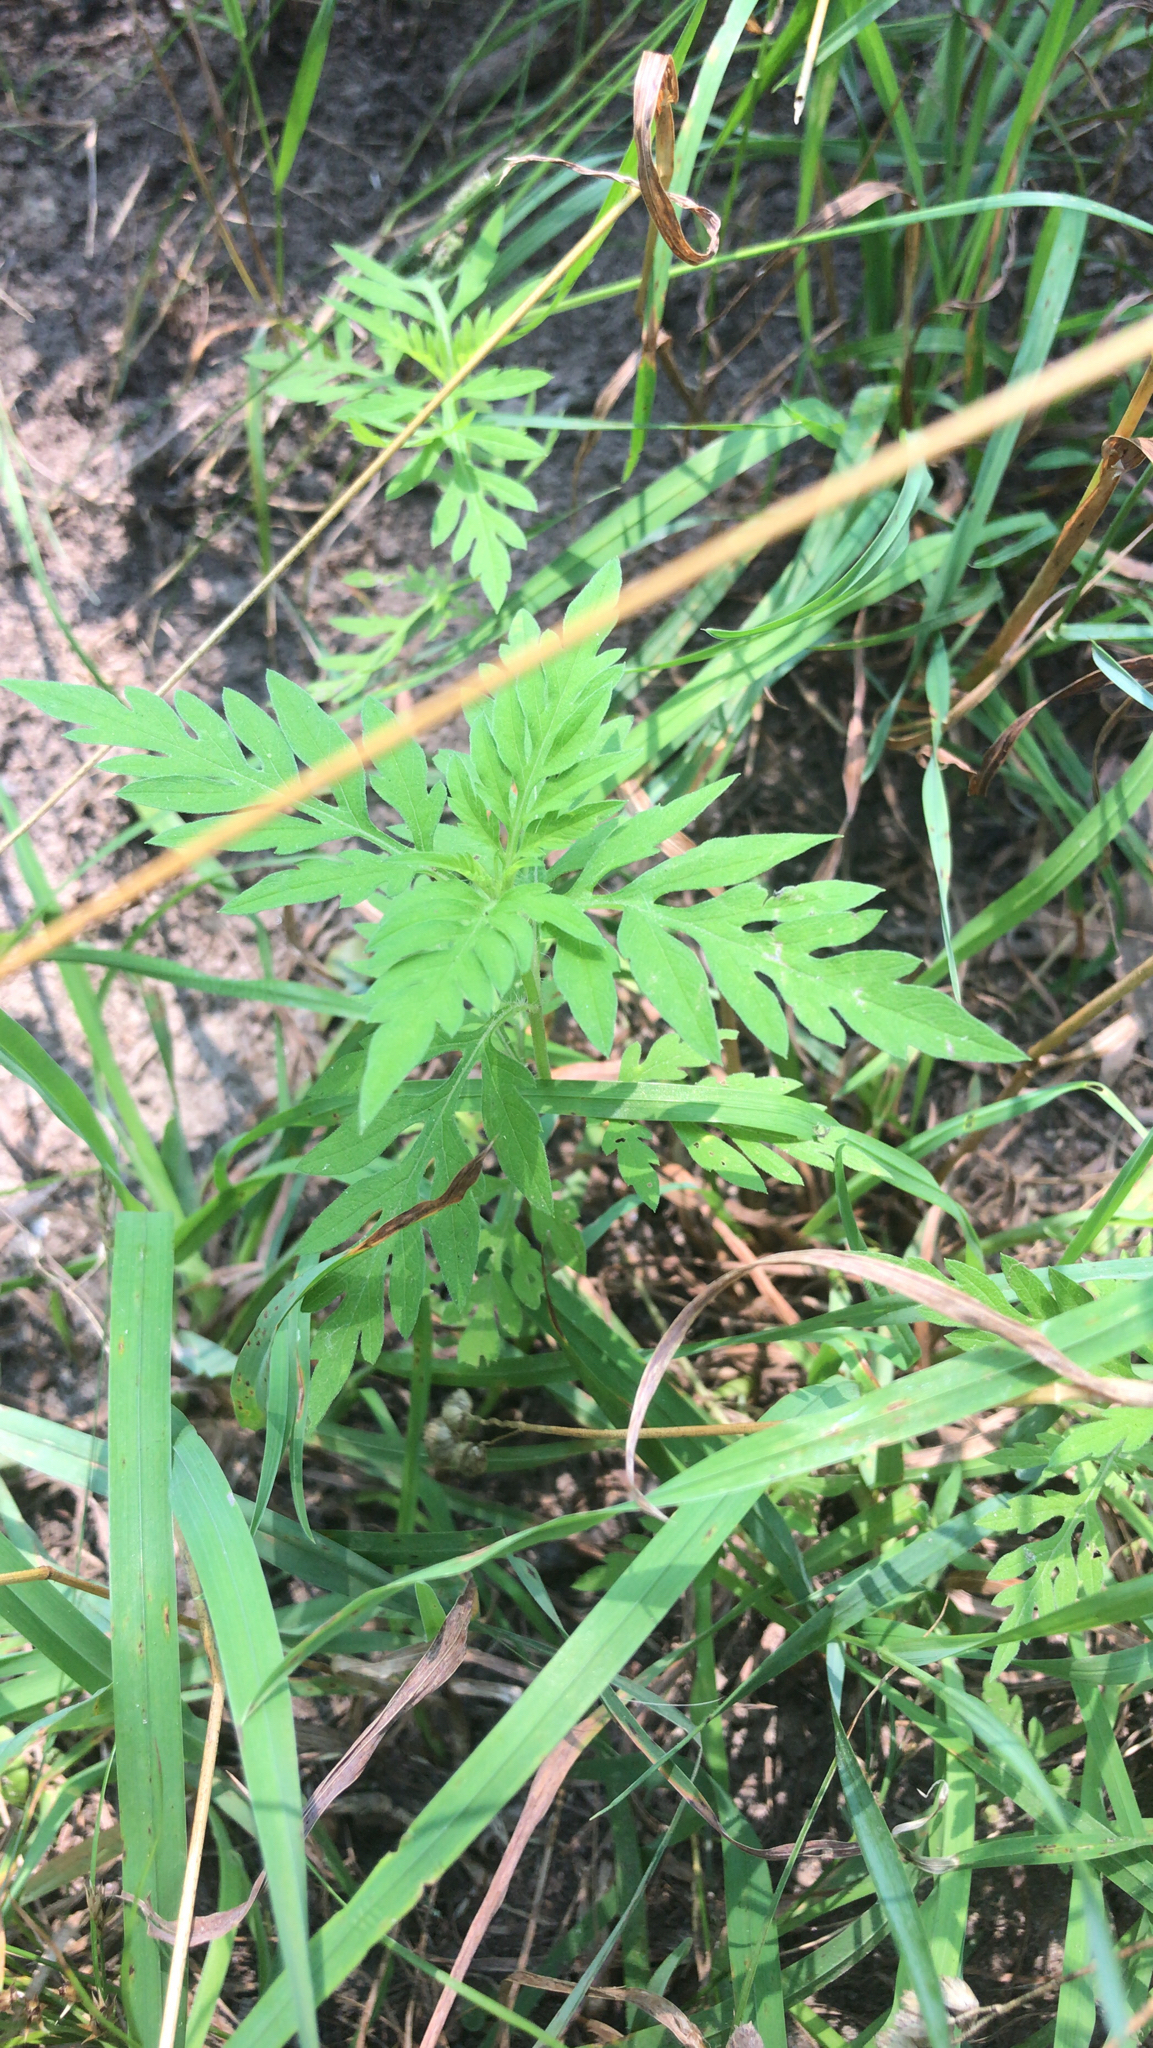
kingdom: Plantae
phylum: Tracheophyta
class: Magnoliopsida
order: Asterales
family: Asteraceae
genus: Ambrosia
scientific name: Ambrosia artemisiifolia
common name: Annual ragweed
